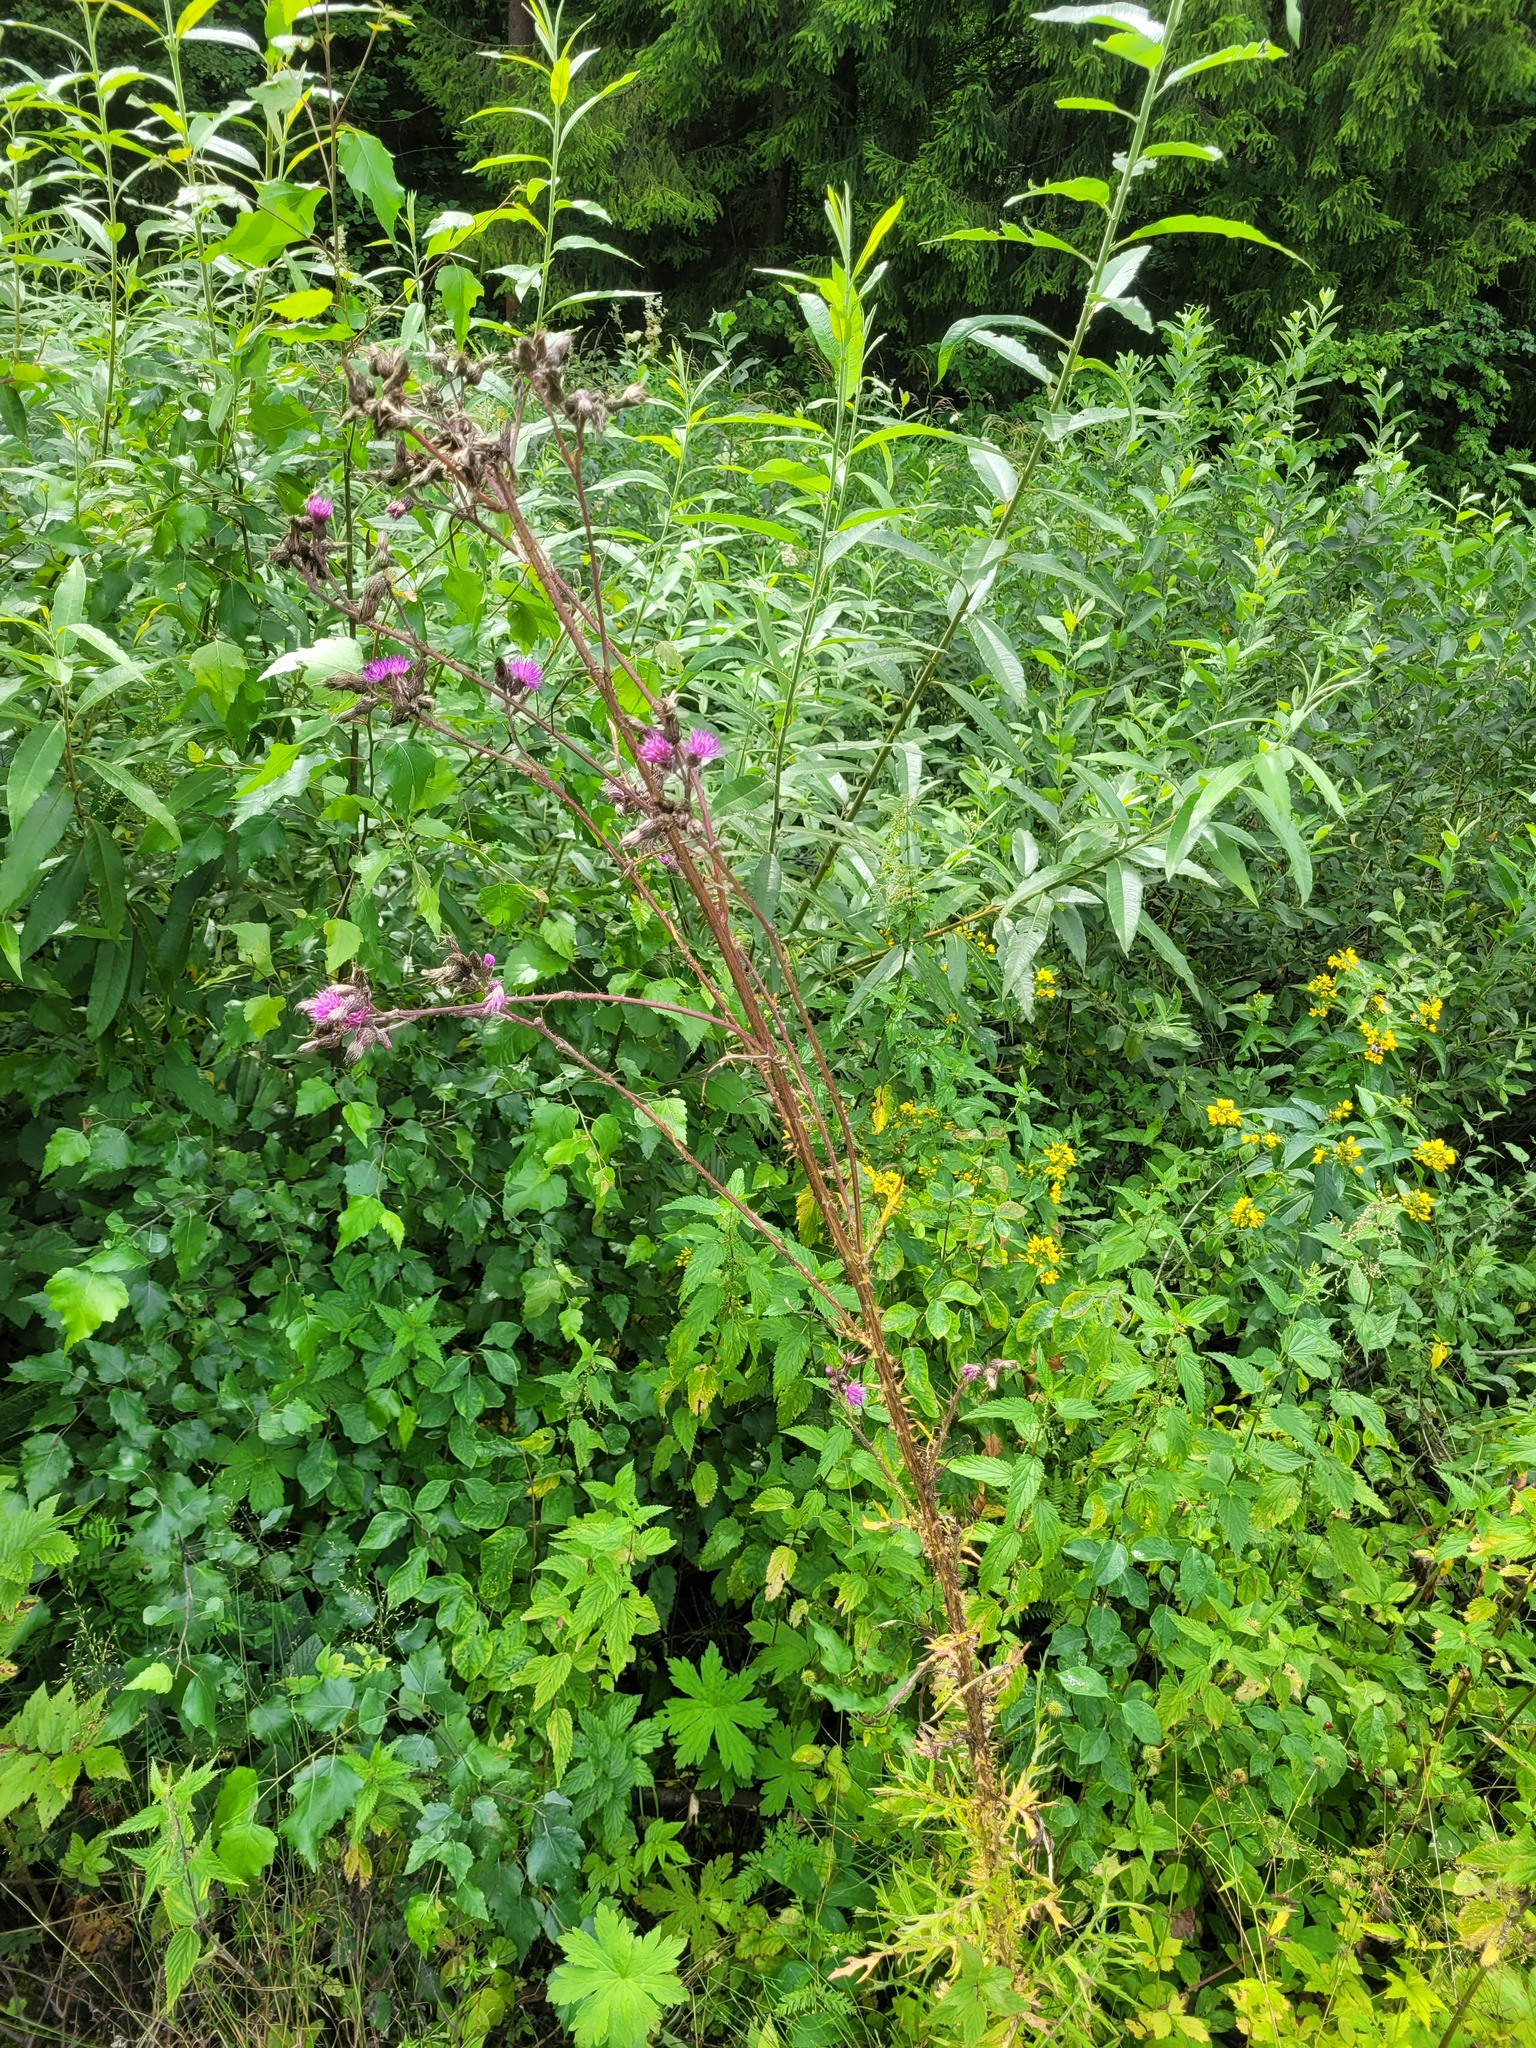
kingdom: Plantae
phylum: Tracheophyta
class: Magnoliopsida
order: Asterales
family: Asteraceae
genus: Cirsium
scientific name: Cirsium palustre
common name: Marsh thistle
